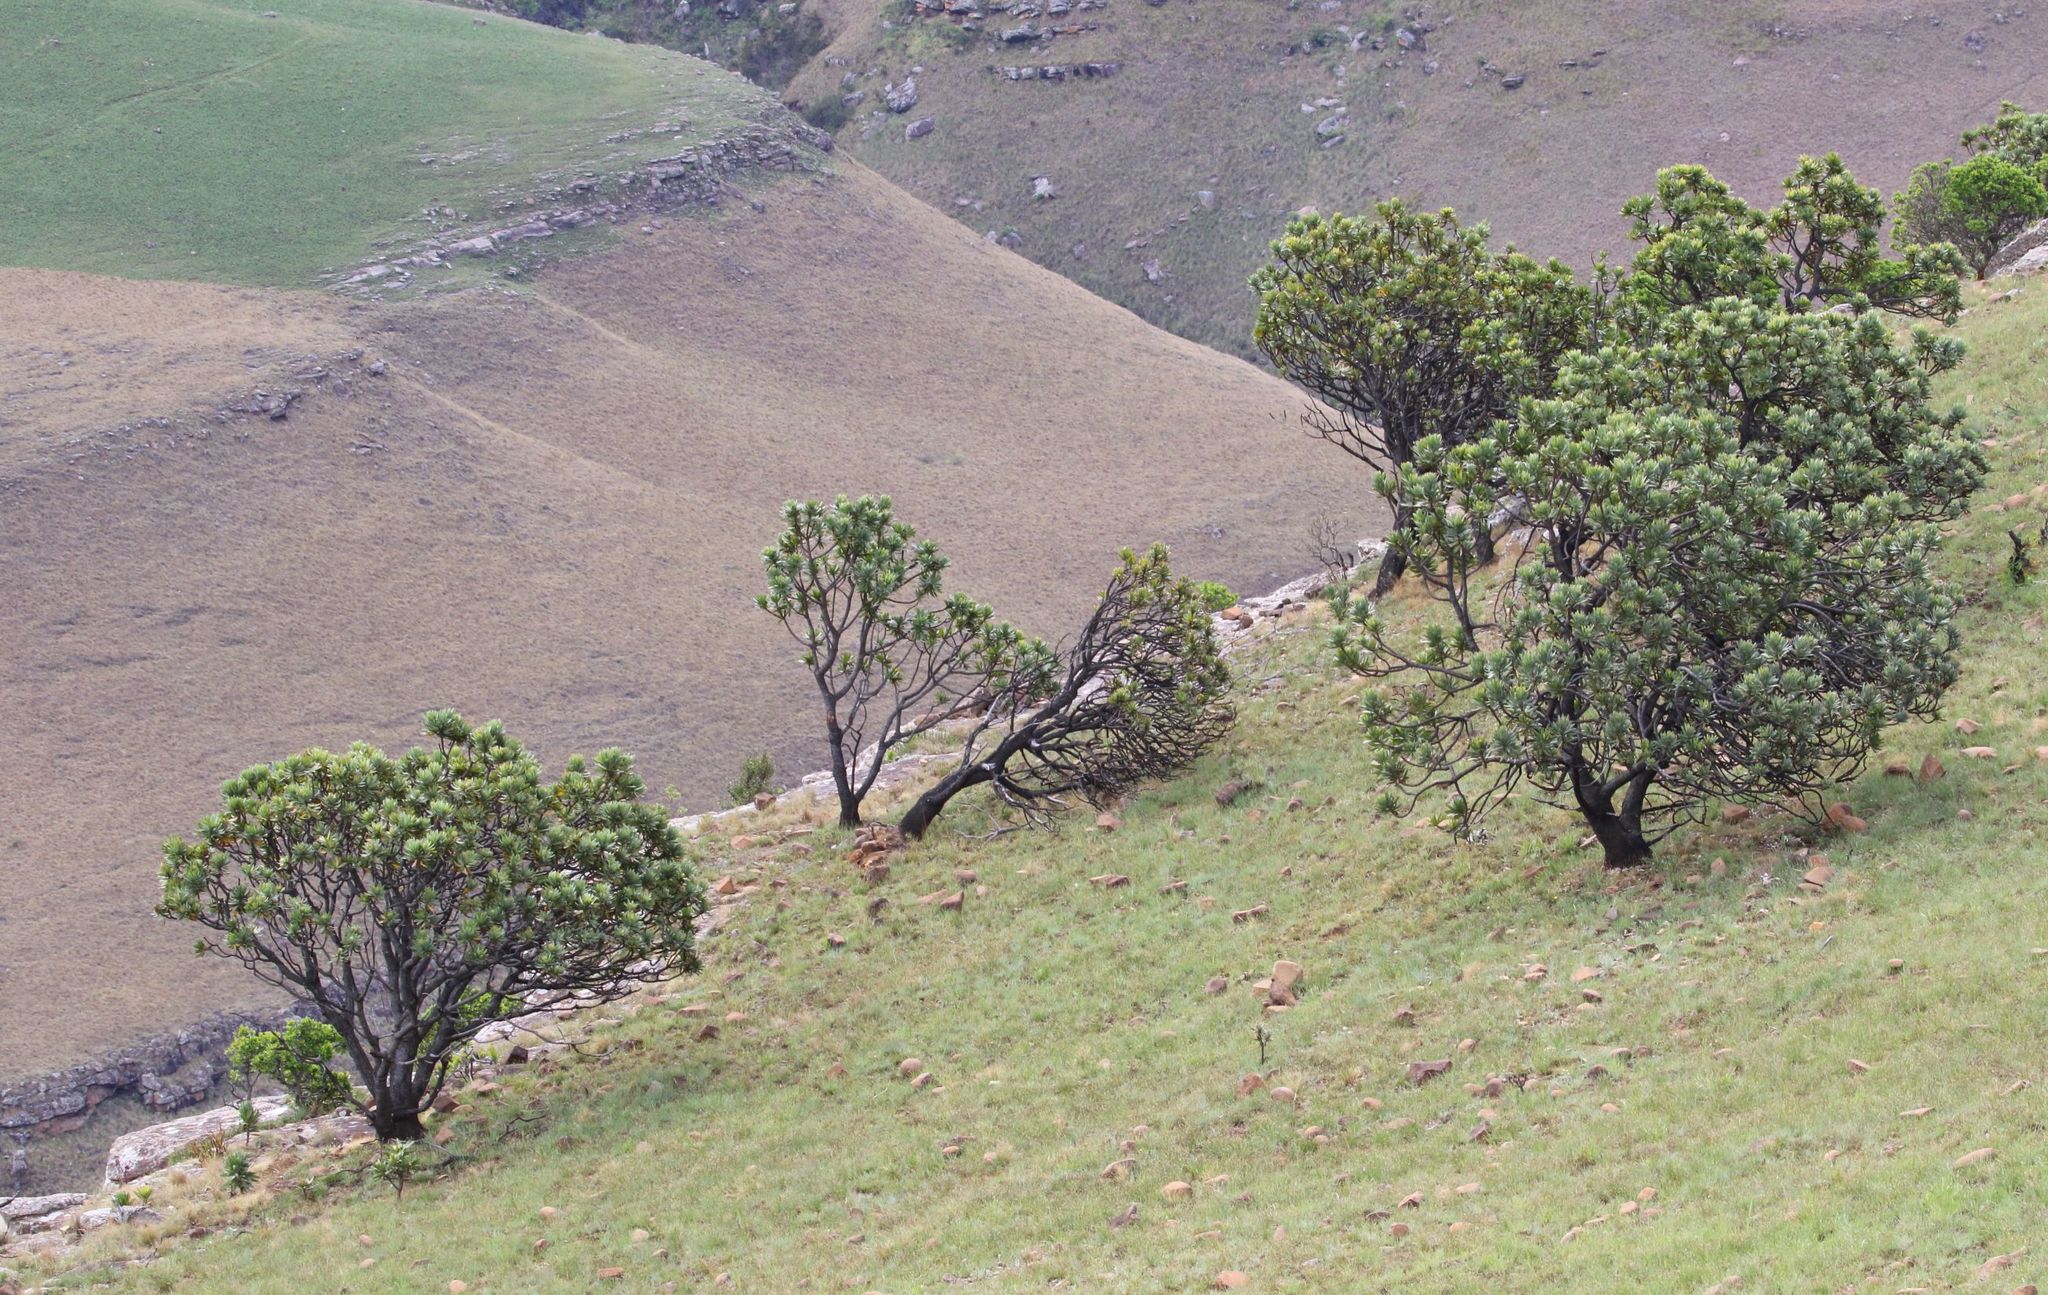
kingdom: Plantae
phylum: Tracheophyta
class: Magnoliopsida
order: Proteales
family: Proteaceae
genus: Protea
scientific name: Protea roupelliae
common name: Silver sugarbush
